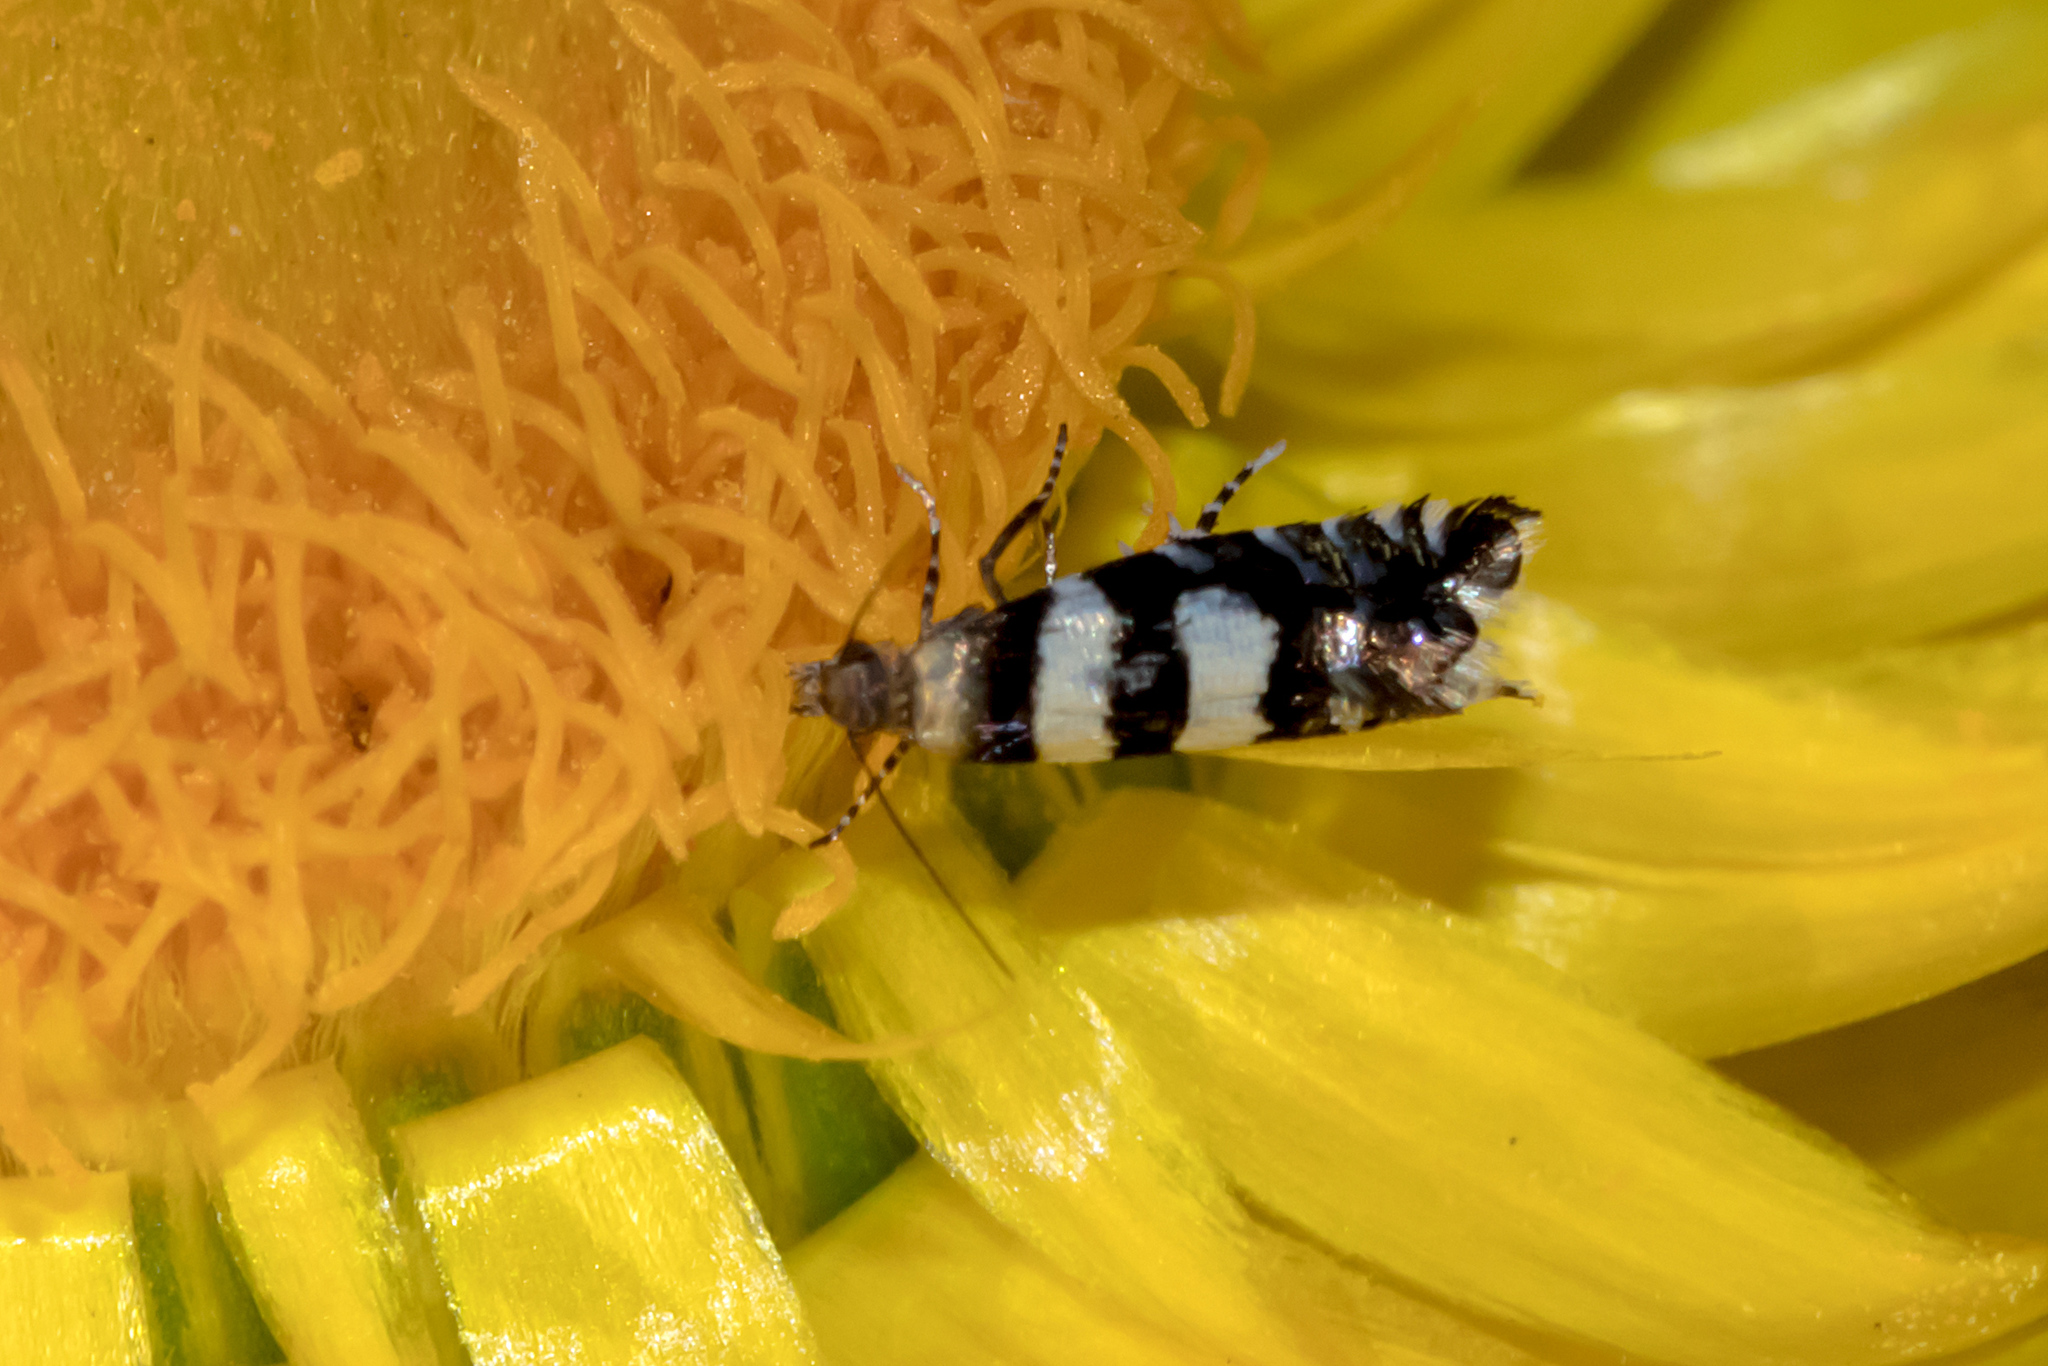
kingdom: Animalia
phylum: Arthropoda
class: Insecta
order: Lepidoptera
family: Glyphipterigidae
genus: Glyphipterix
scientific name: Glyphipterix meteora
